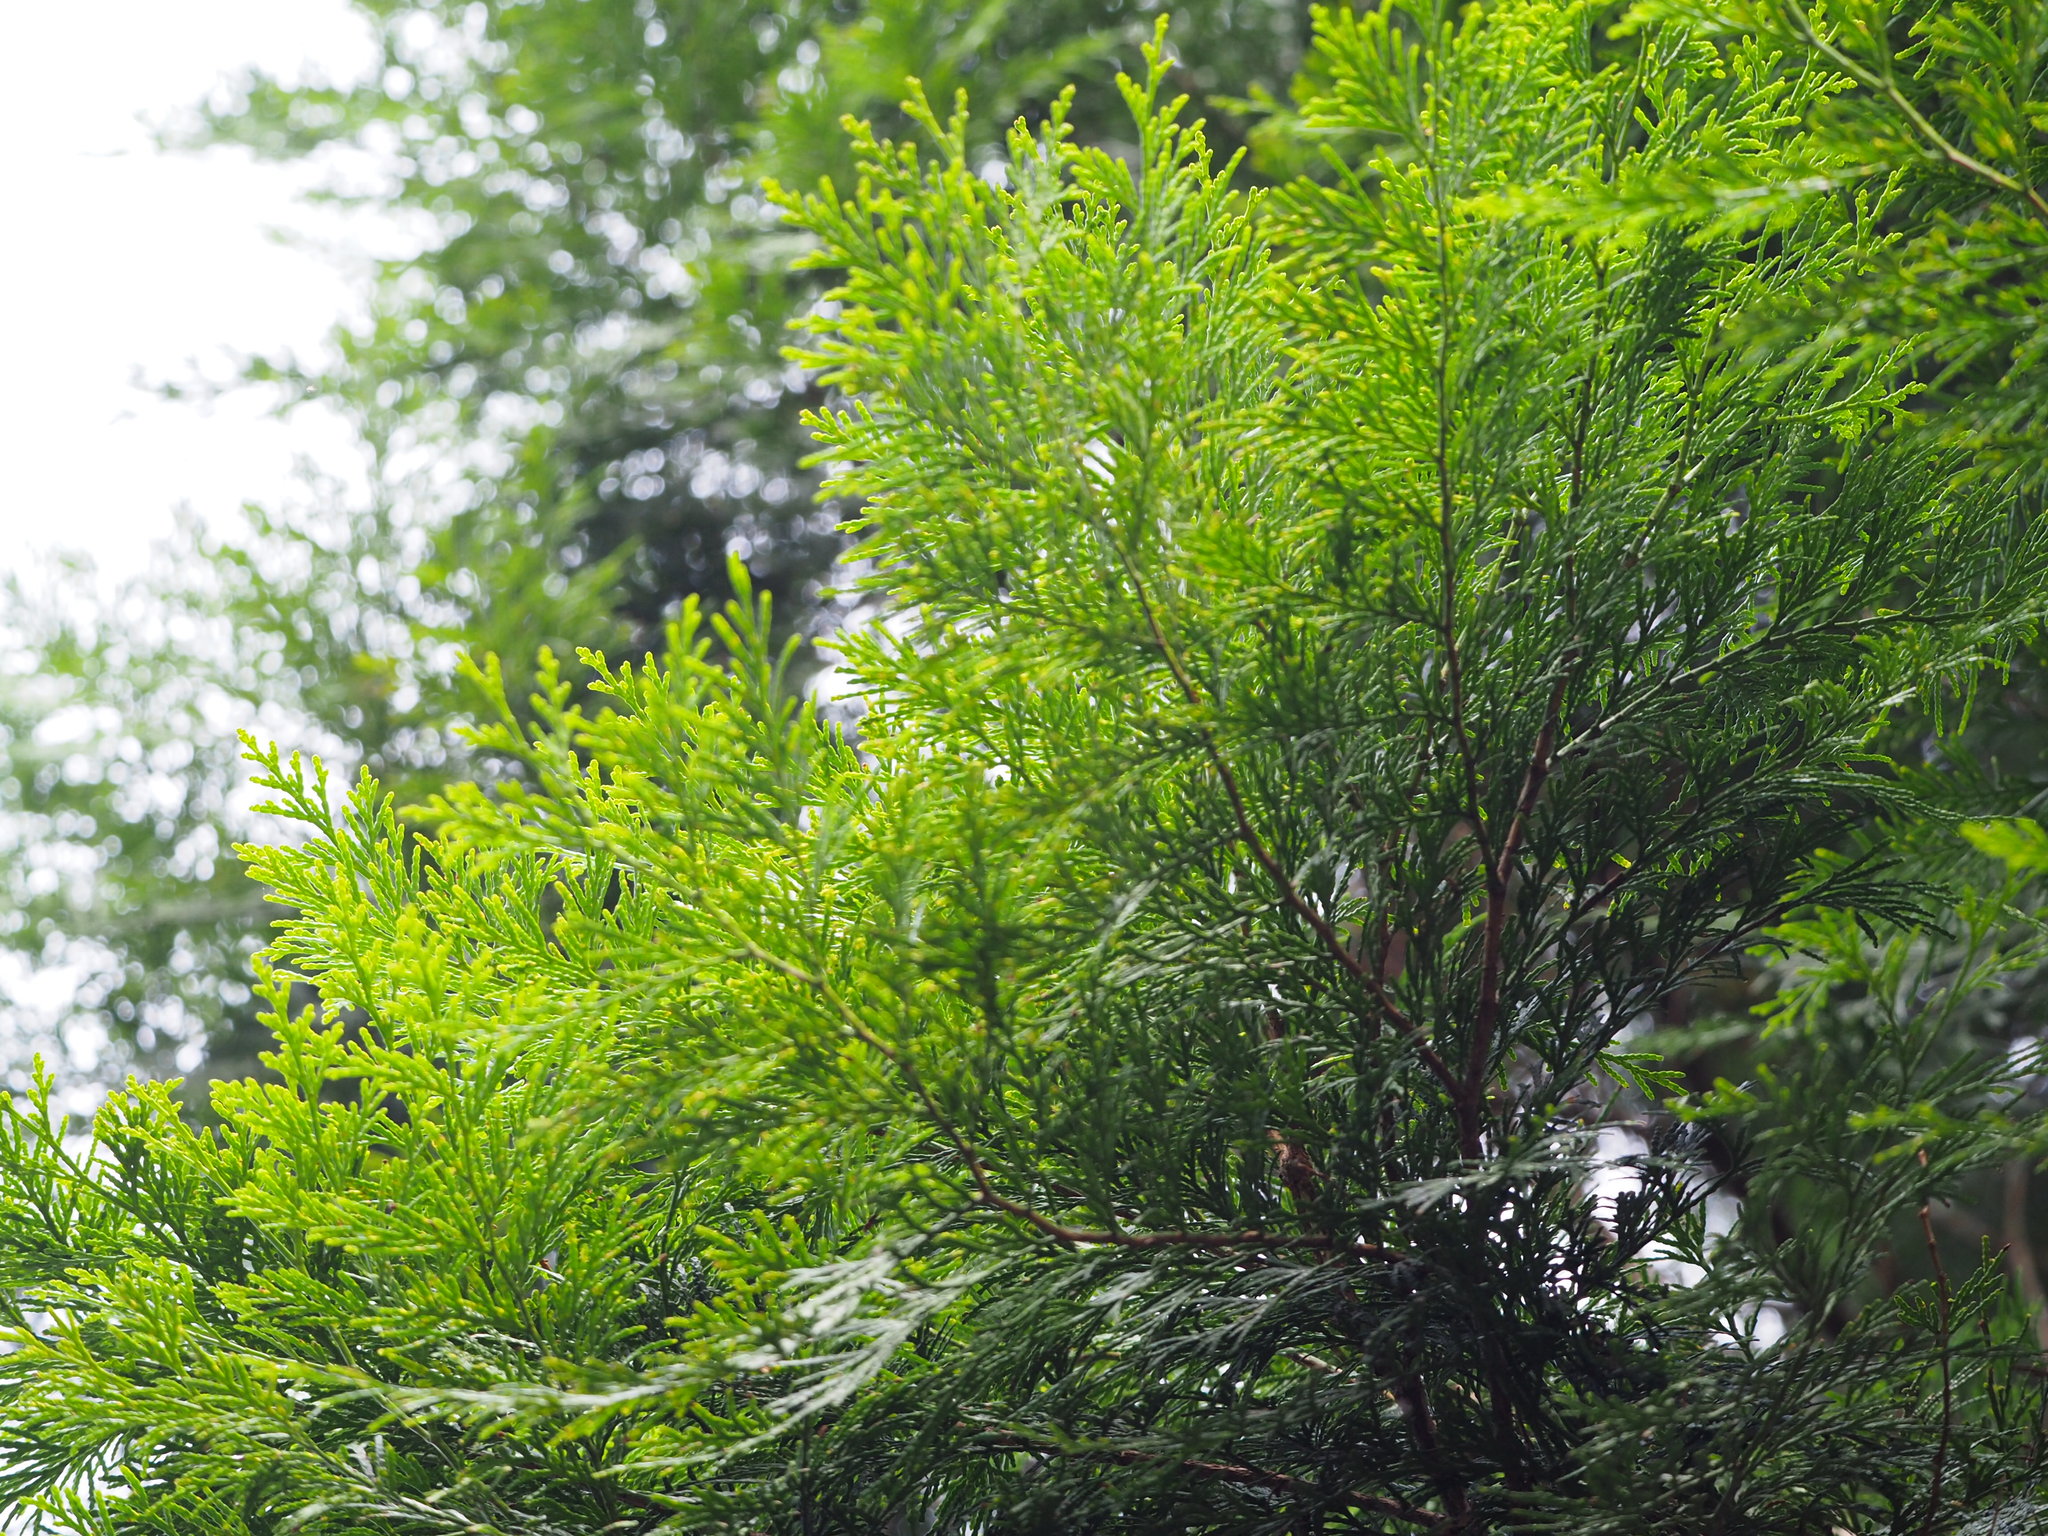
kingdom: Plantae
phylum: Tracheophyta
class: Pinopsida
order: Pinales
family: Cupressaceae
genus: Calocedrus
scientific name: Calocedrus formosana
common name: Taiwan incense-cedar
